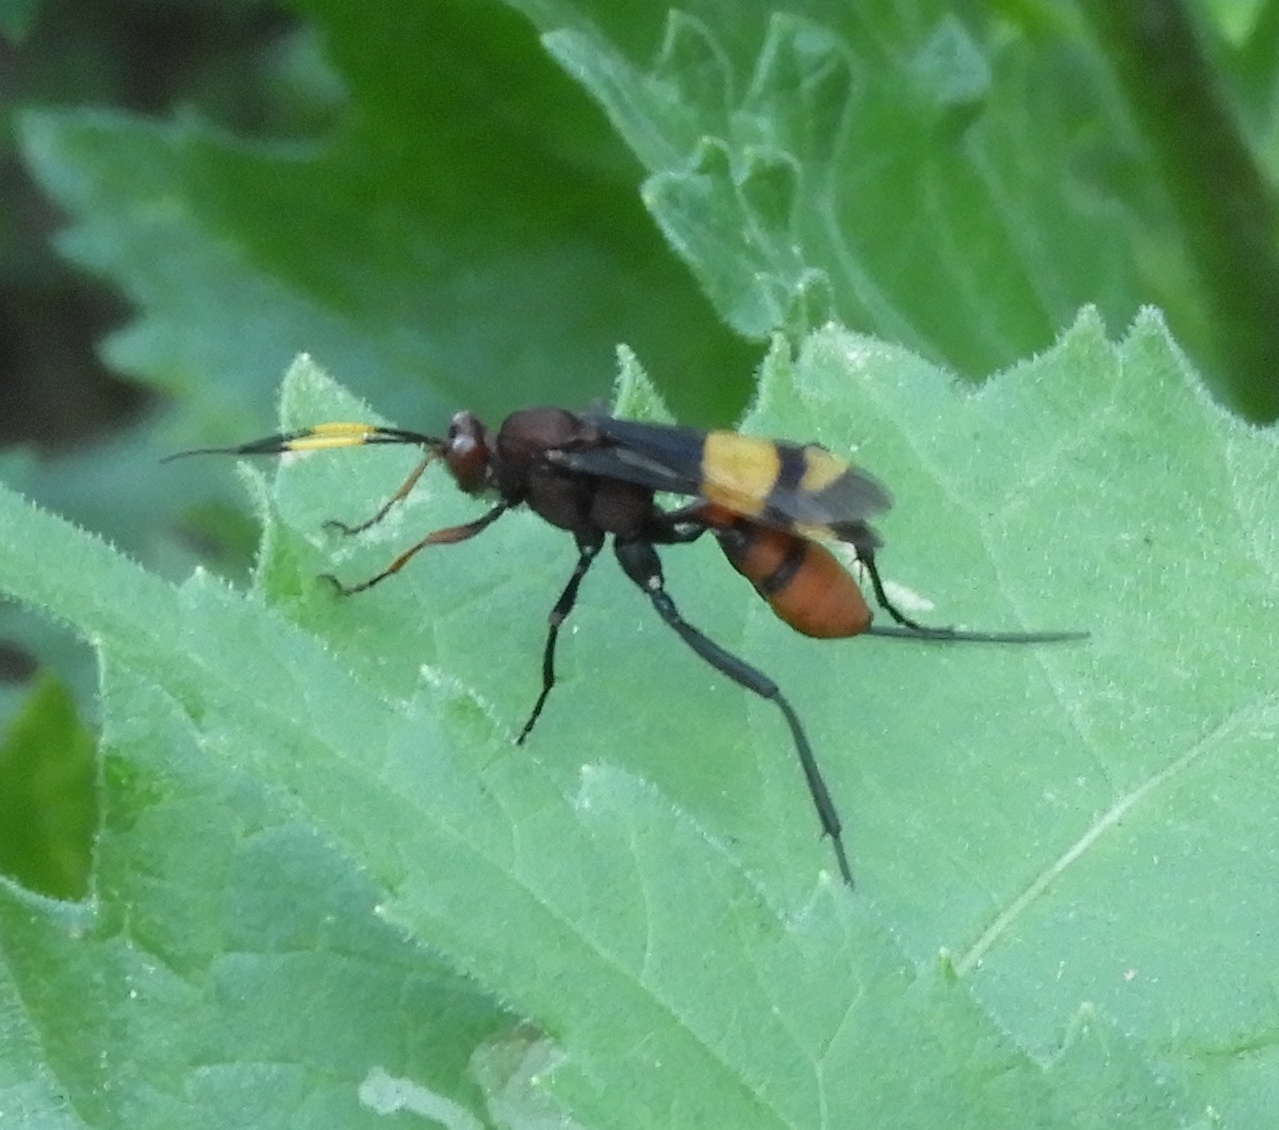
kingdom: Animalia
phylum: Arthropoda
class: Insecta
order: Hymenoptera
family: Ichneumonidae
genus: Compsocryptus
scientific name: Compsocryptus xanthostigma
